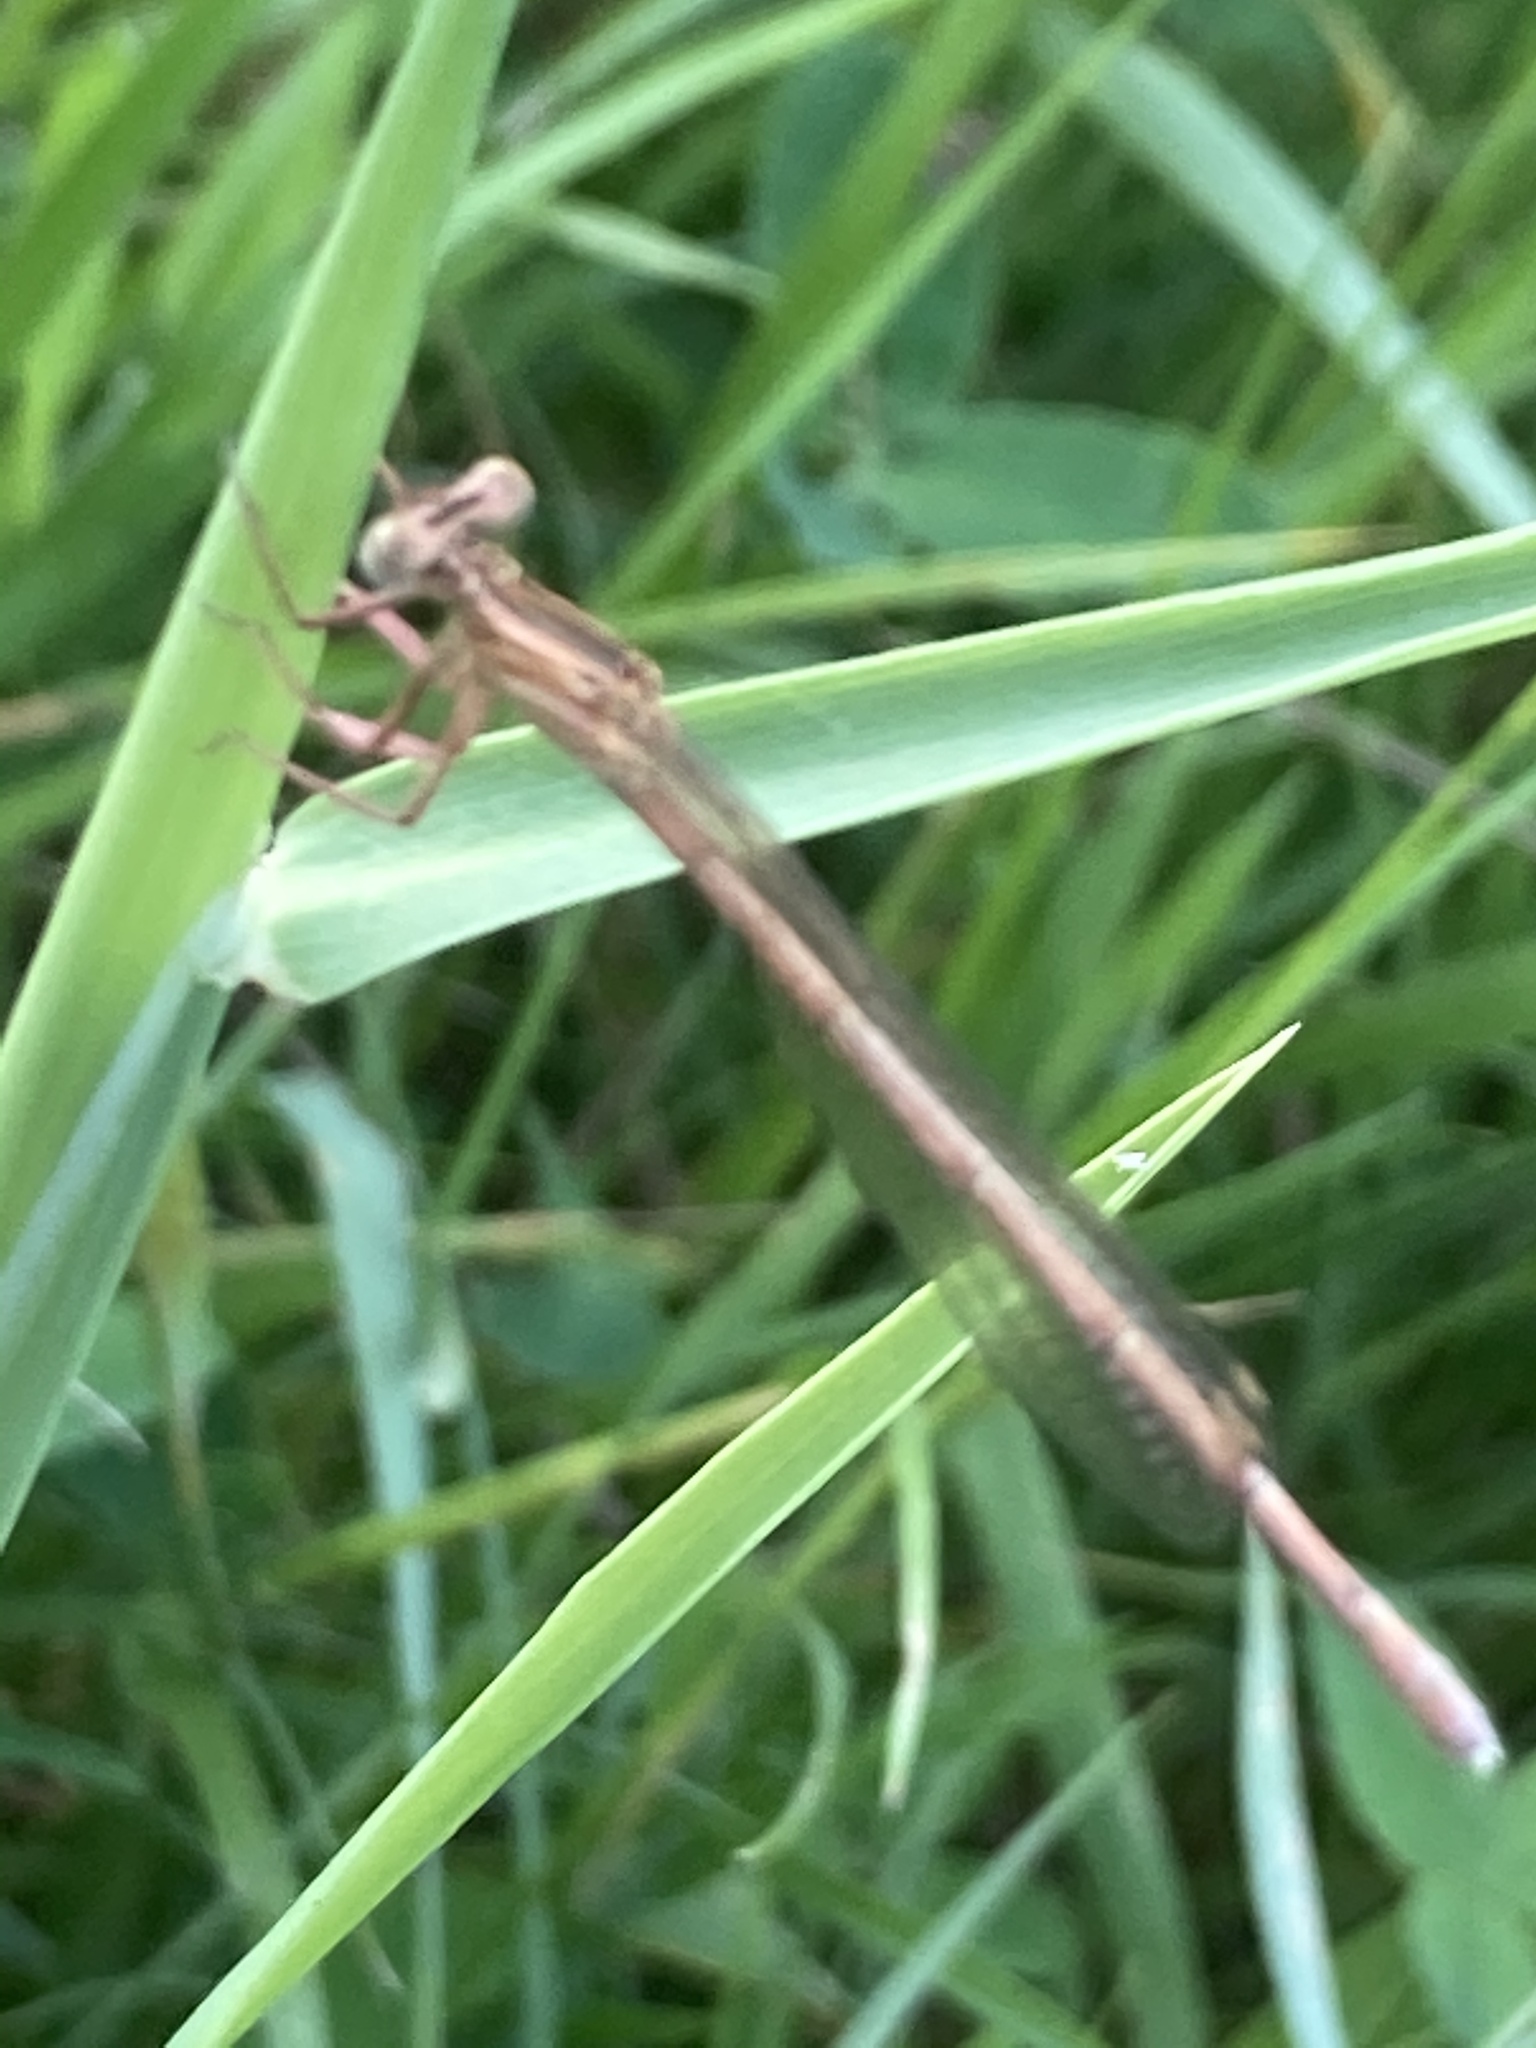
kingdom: Animalia
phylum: Arthropoda
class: Insecta
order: Odonata
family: Platycnemididae
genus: Platycnemis
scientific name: Platycnemis pennipes
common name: White-legged damselfly
